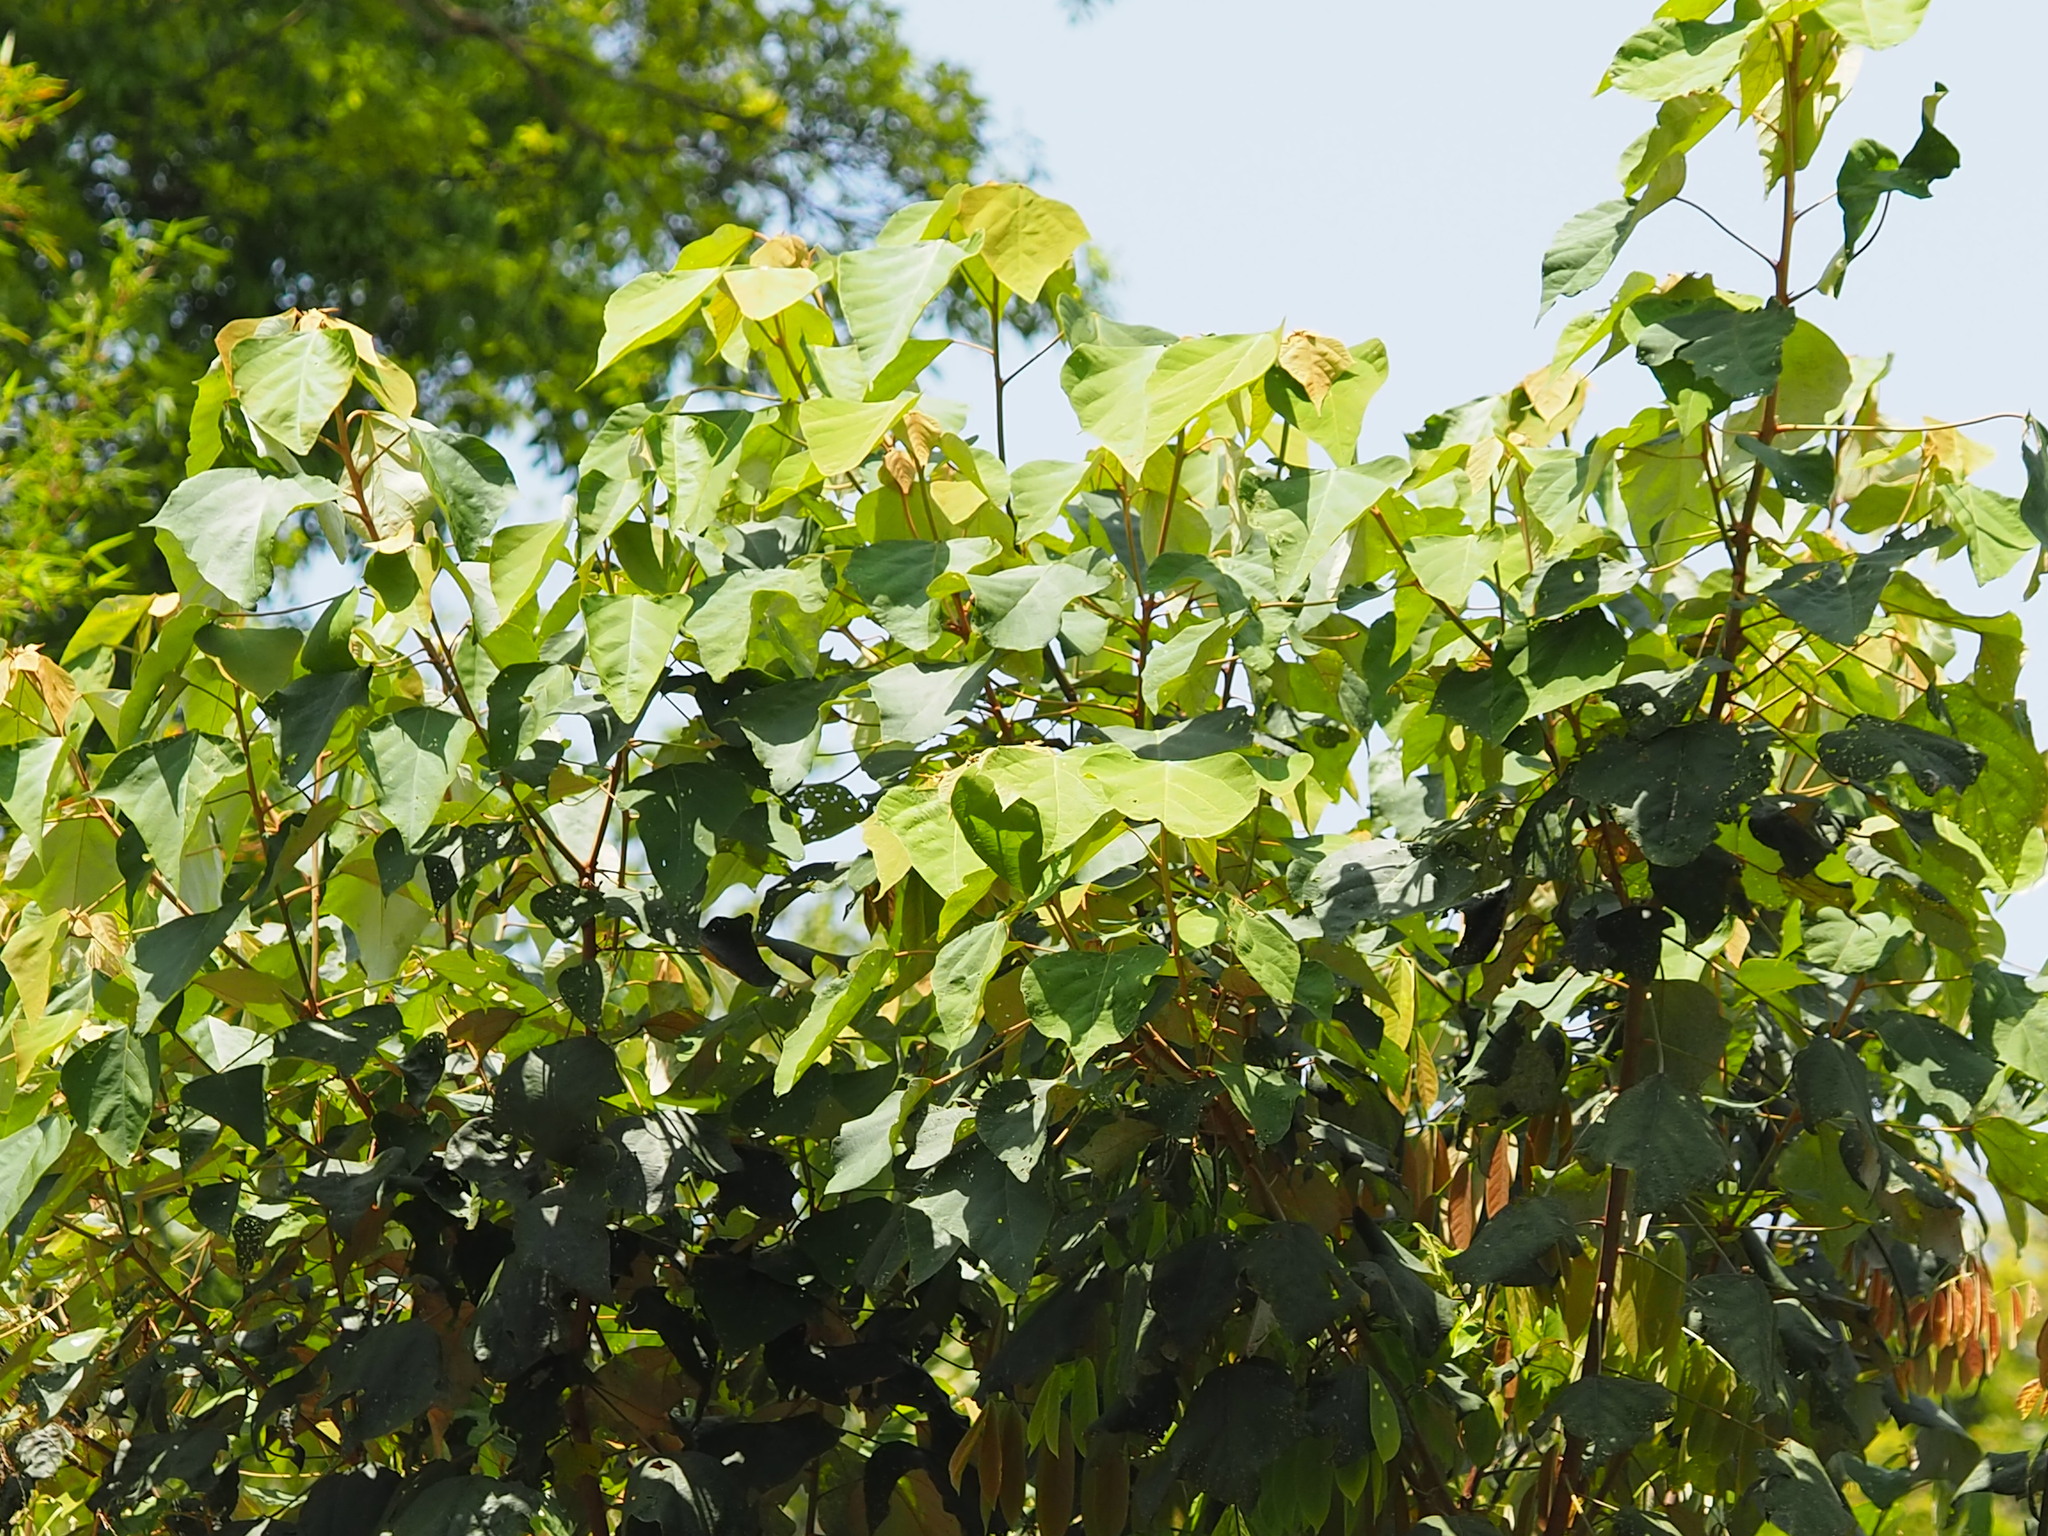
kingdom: Plantae
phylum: Tracheophyta
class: Magnoliopsida
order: Malpighiales
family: Euphorbiaceae
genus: Mallotus
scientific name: Mallotus paniculatus
